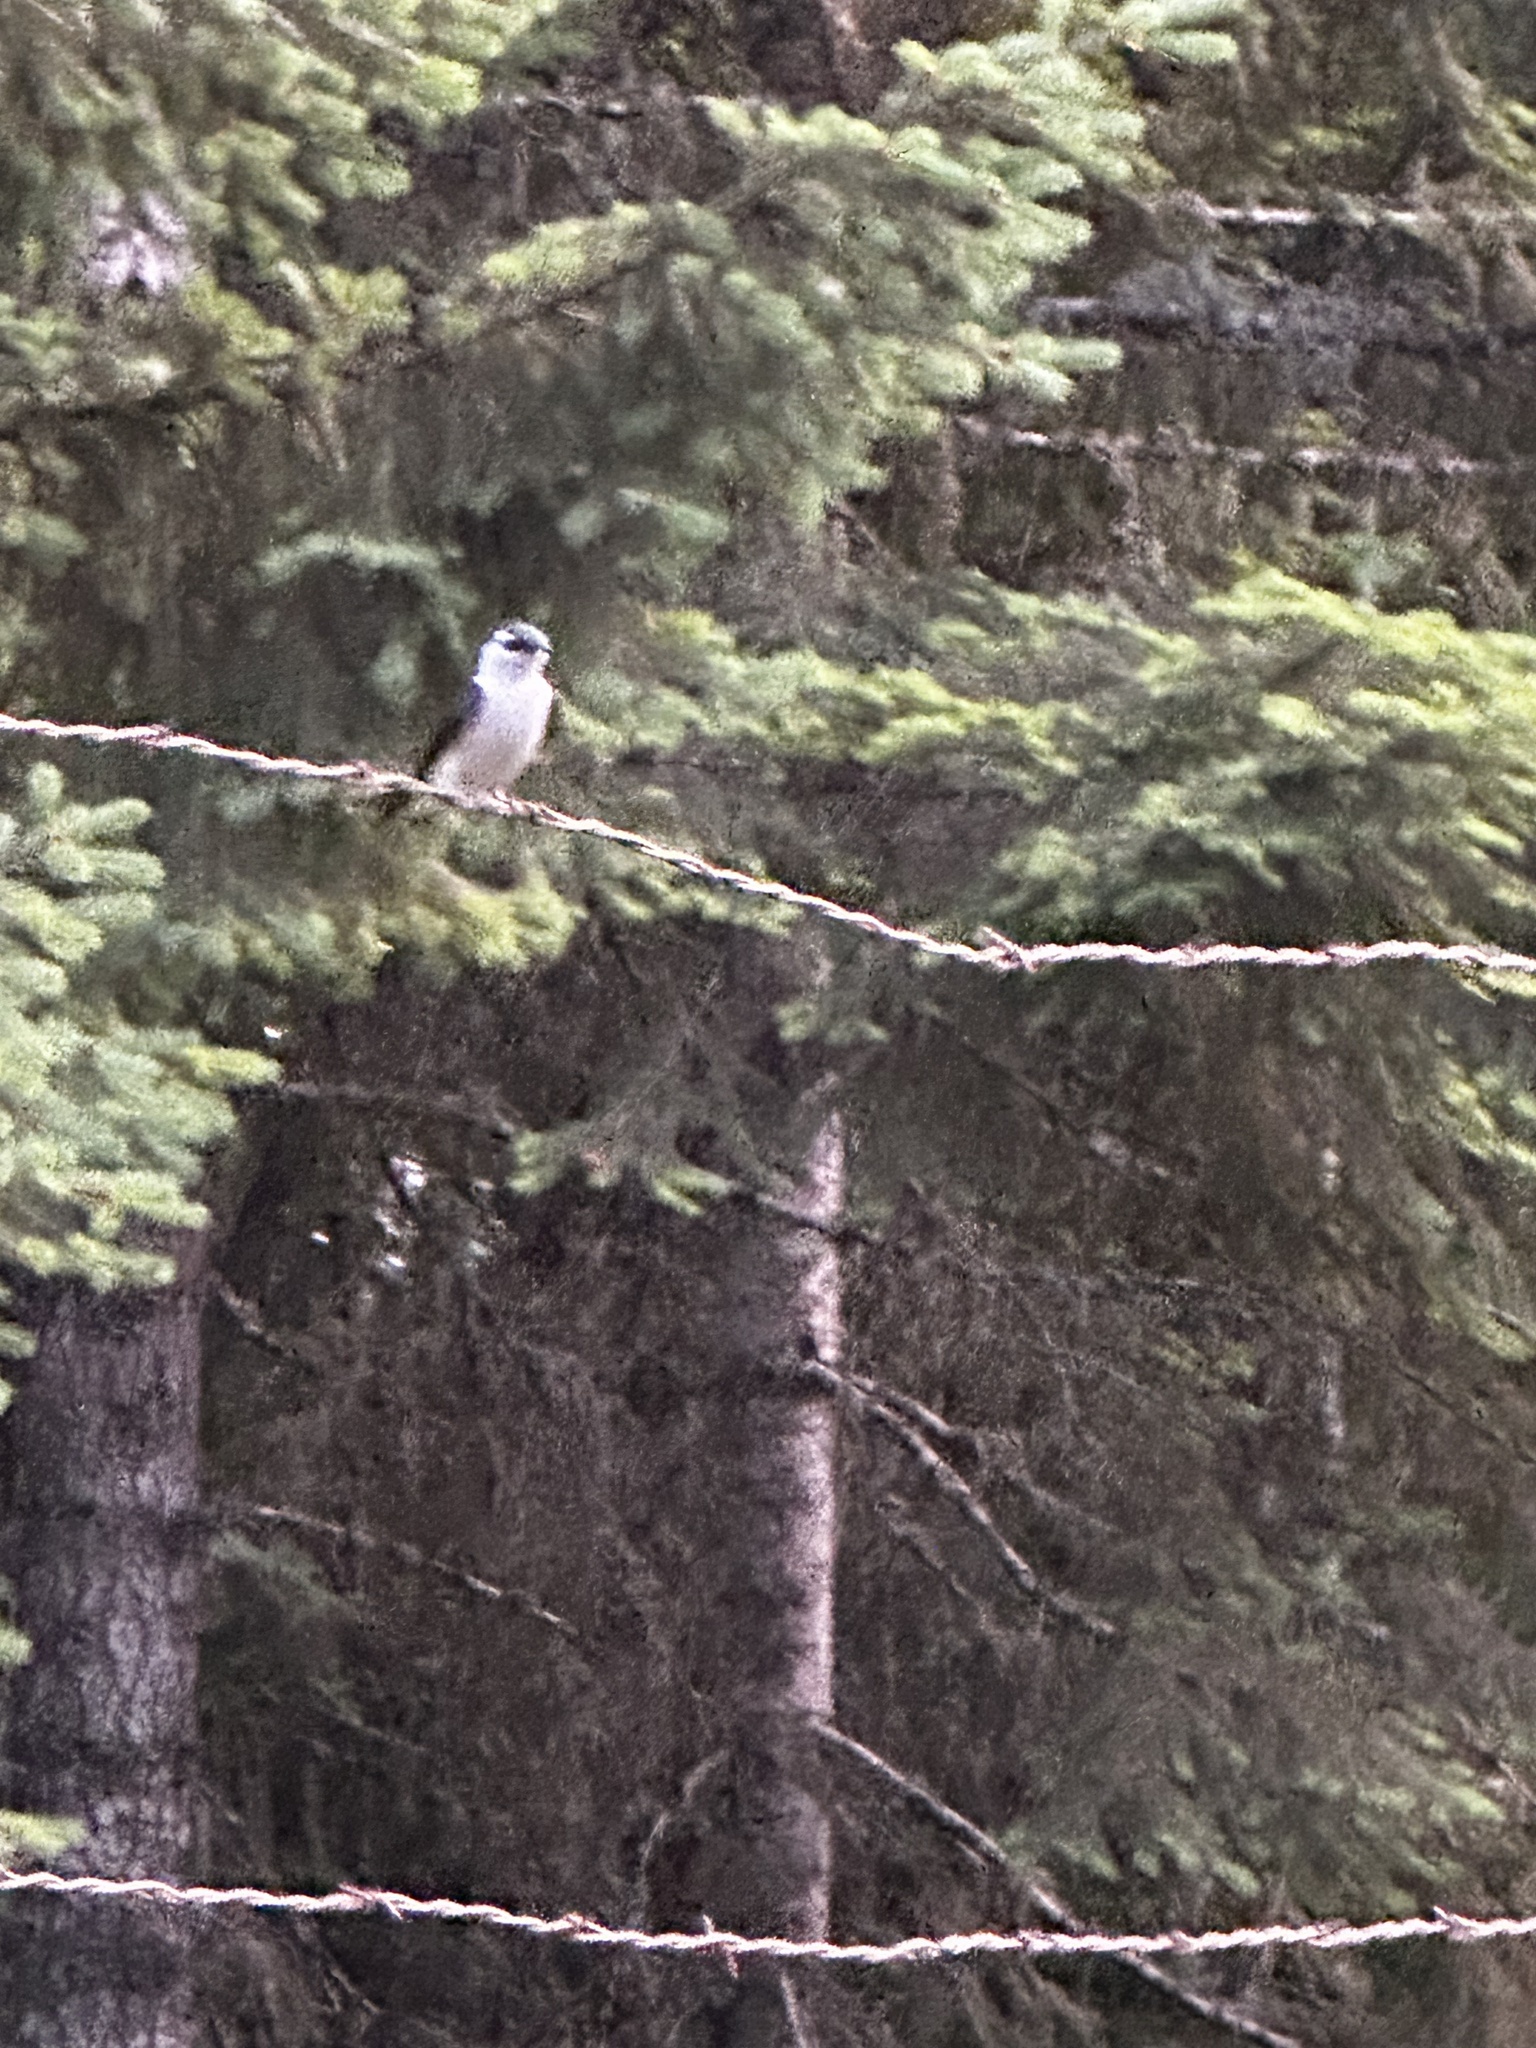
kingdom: Animalia
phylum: Chordata
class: Aves
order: Passeriformes
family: Hirundinidae
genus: Tachycineta
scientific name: Tachycineta thalassina
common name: Violet-green swallow
